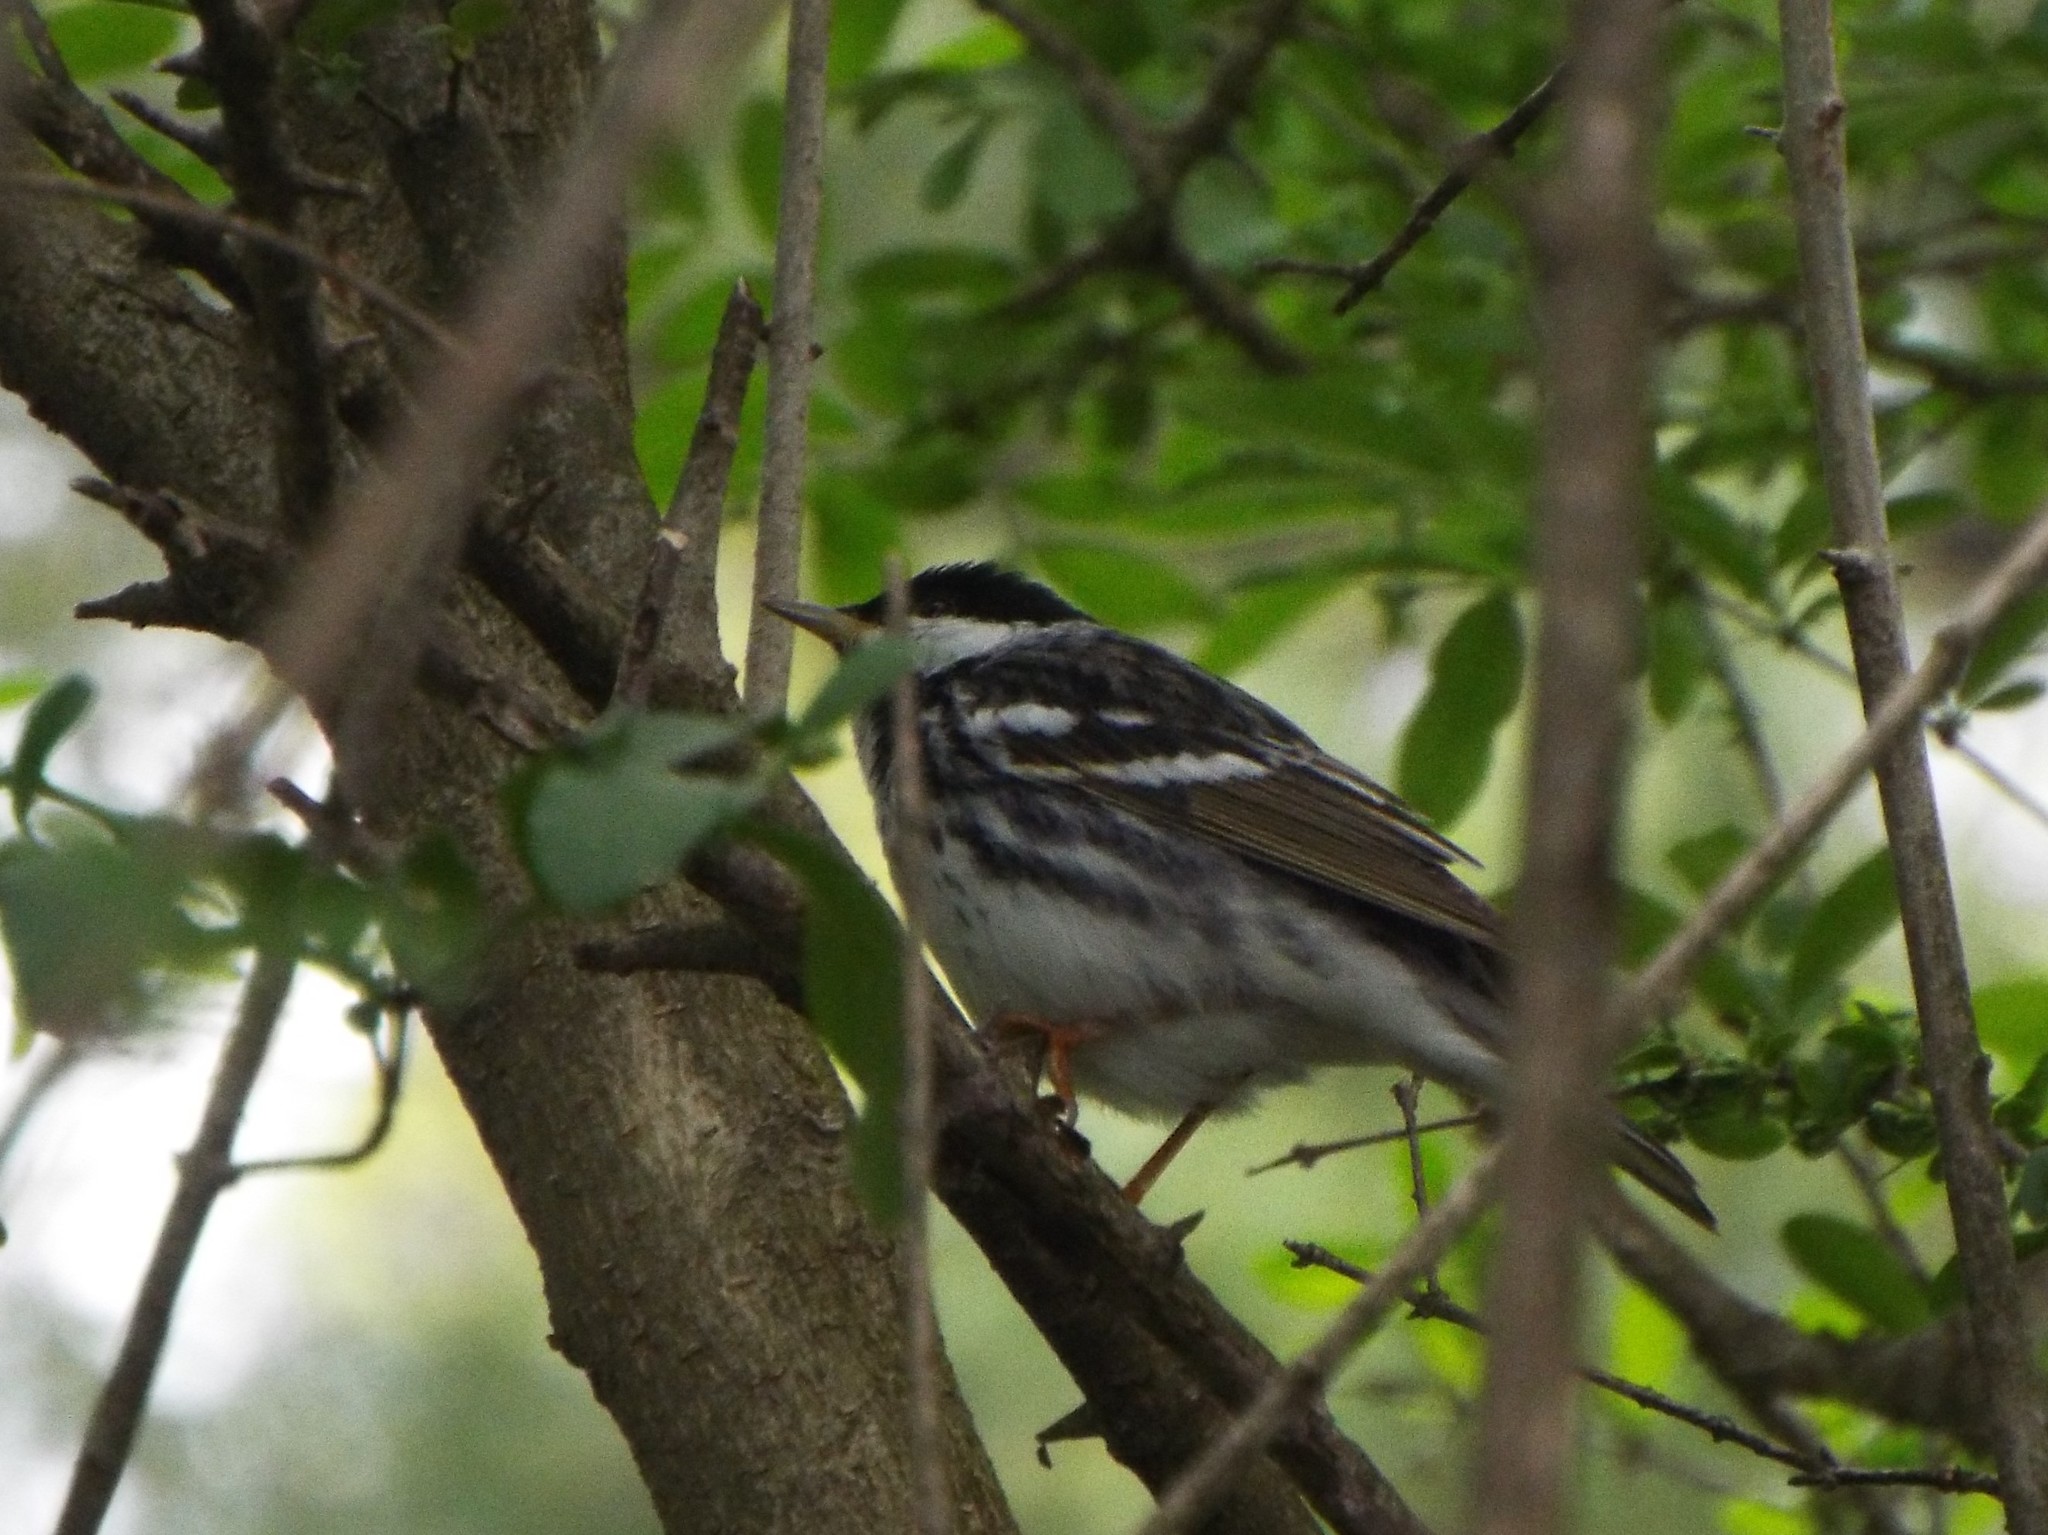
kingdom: Animalia
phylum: Chordata
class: Aves
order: Passeriformes
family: Parulidae
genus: Setophaga
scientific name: Setophaga striata
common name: Blackpoll warbler
